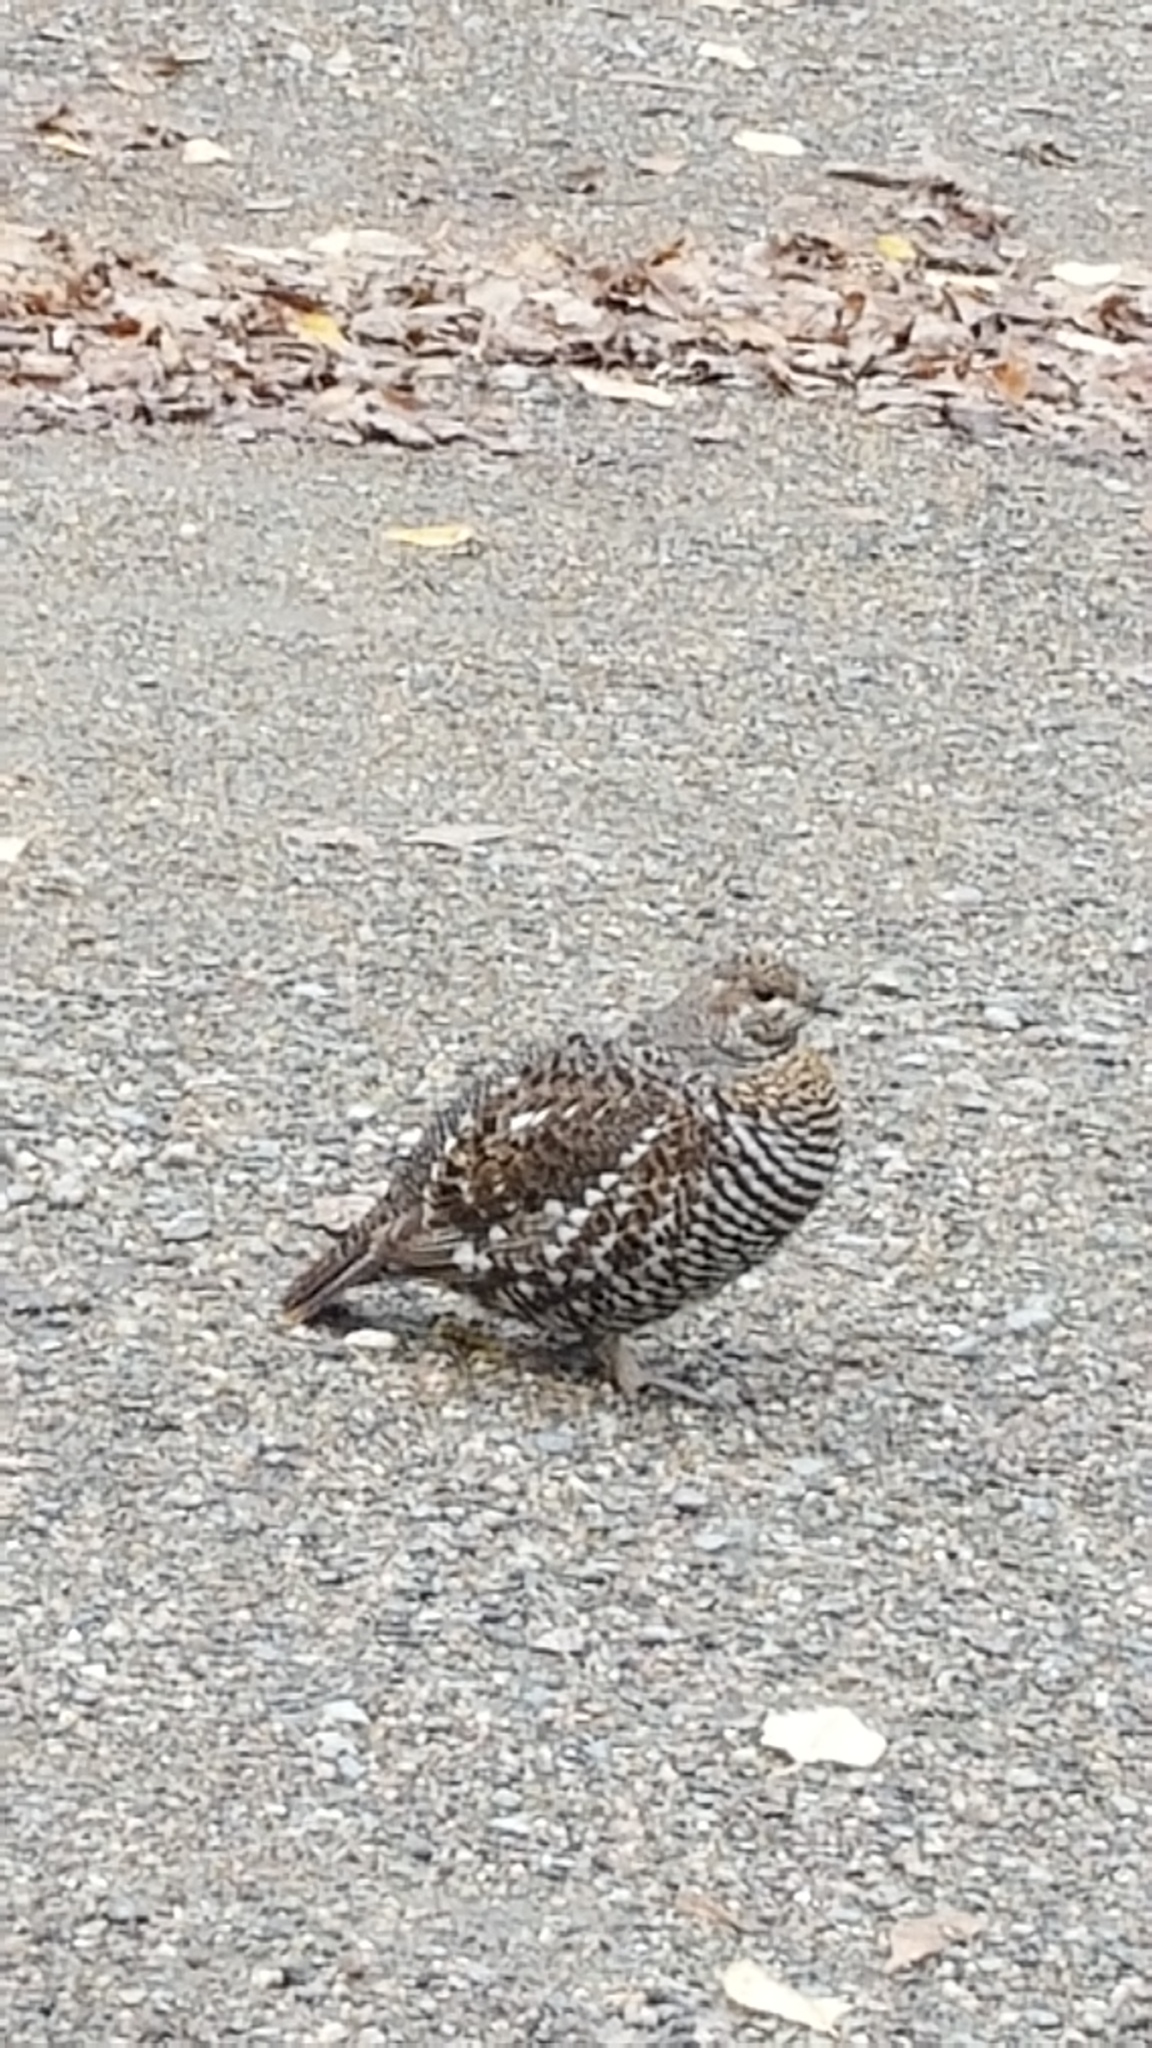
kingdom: Animalia
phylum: Chordata
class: Aves
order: Galliformes
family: Phasianidae
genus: Canachites
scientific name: Canachites canadensis
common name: Spruce grouse
